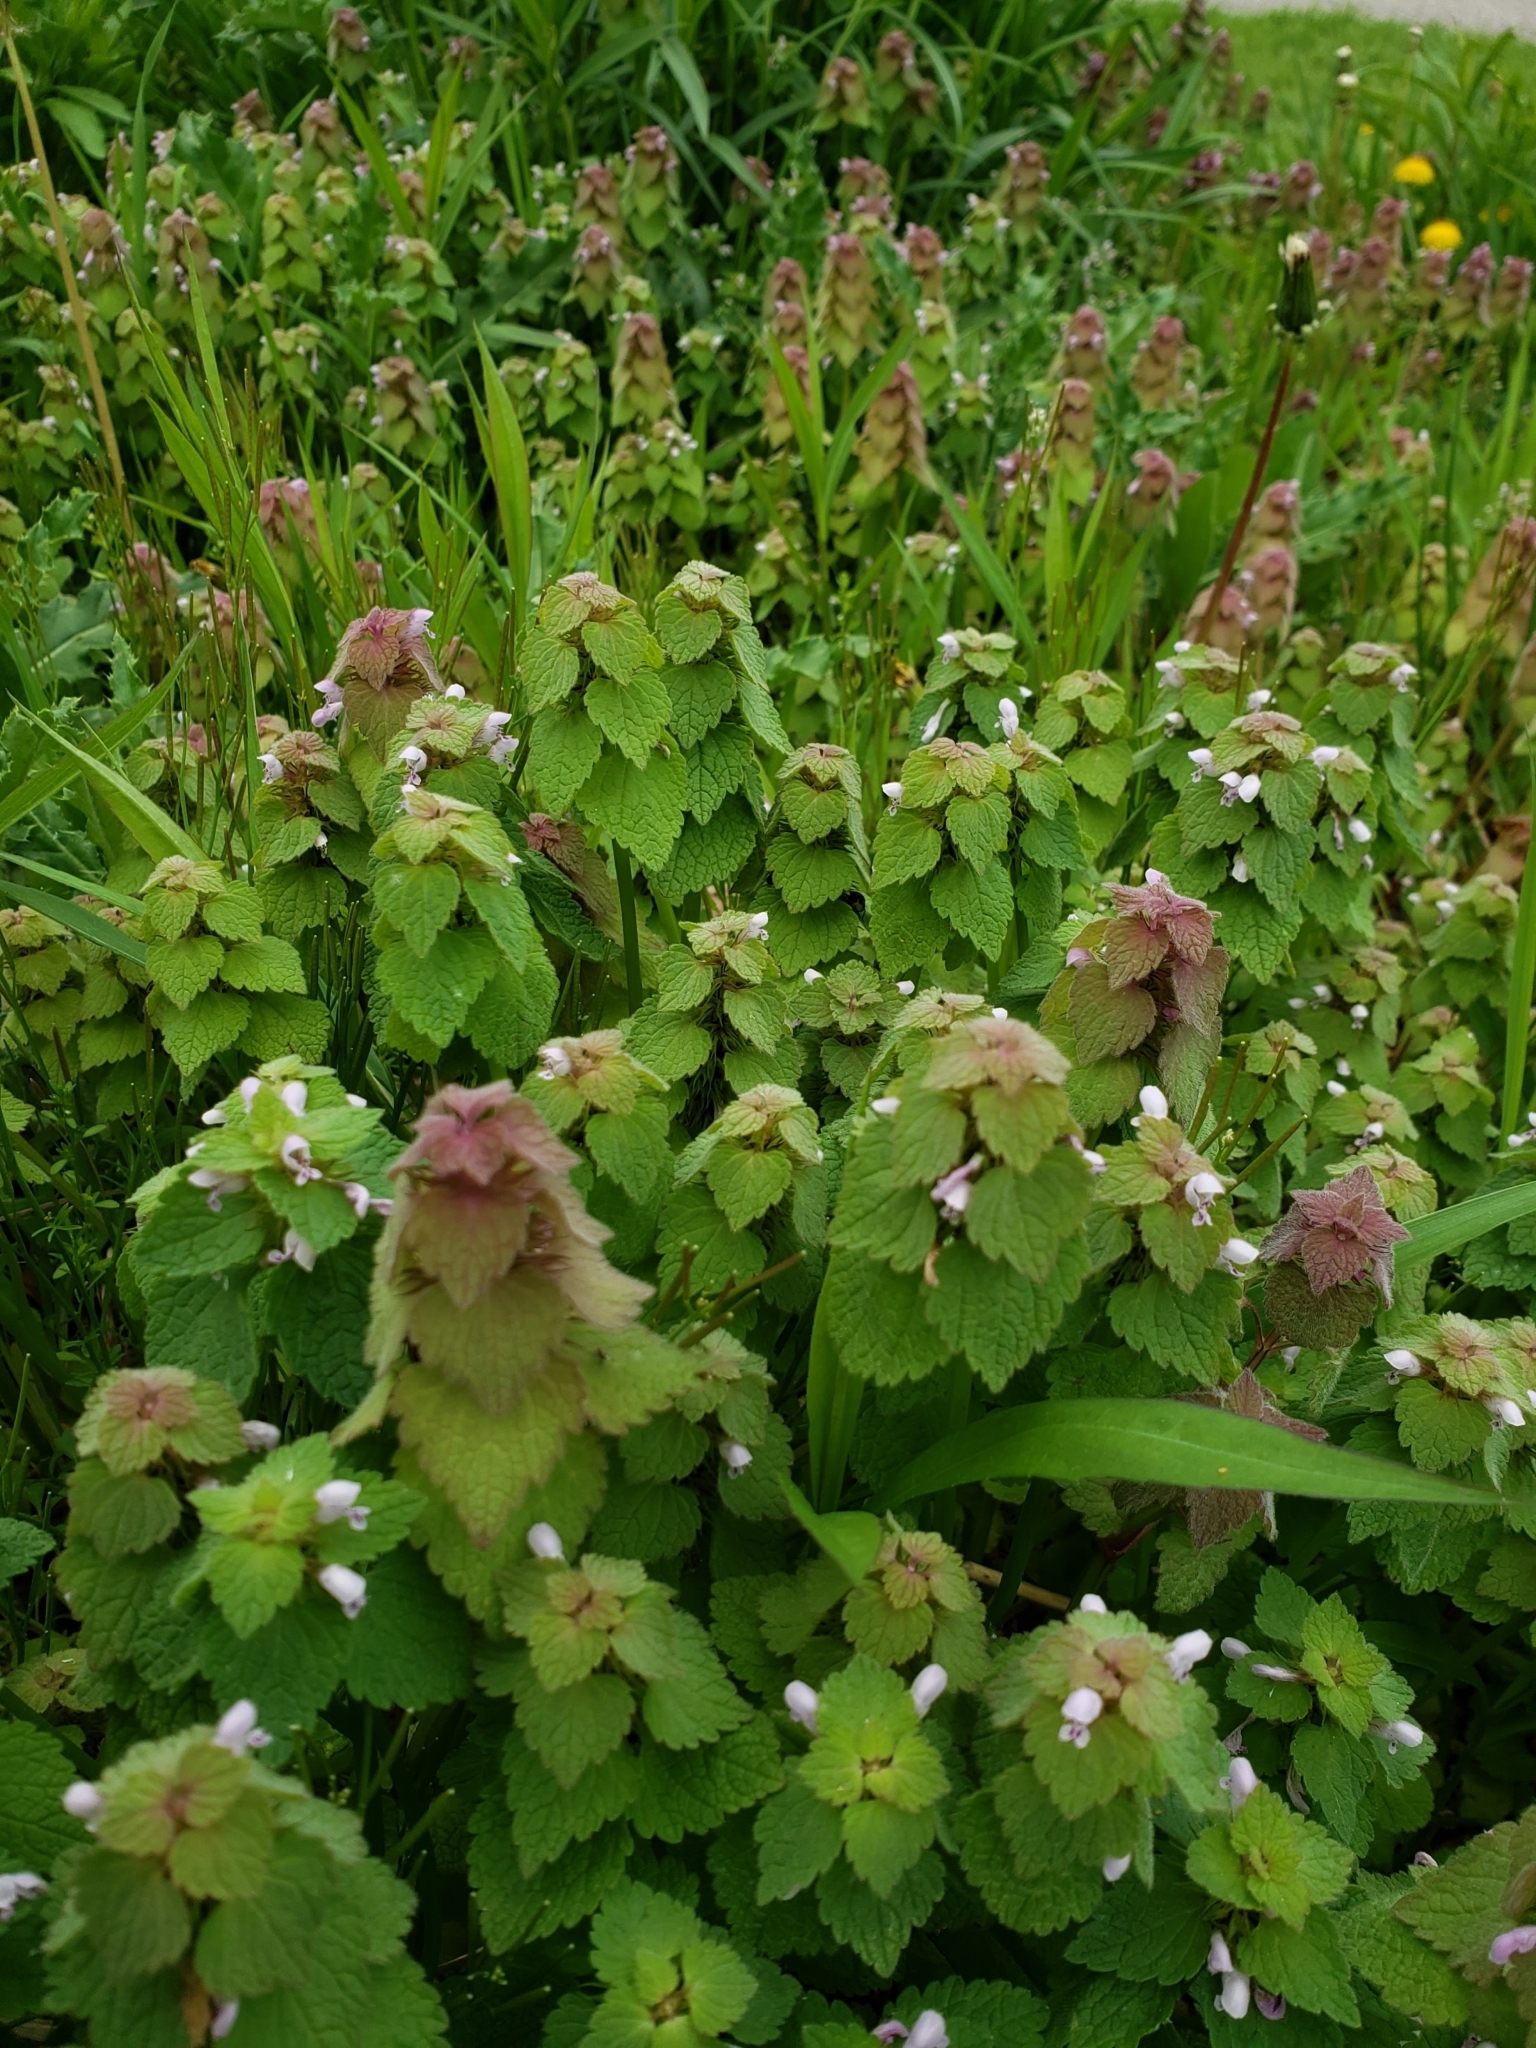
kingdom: Plantae
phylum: Tracheophyta
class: Magnoliopsida
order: Lamiales
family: Lamiaceae
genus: Lamium
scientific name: Lamium purpureum
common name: Red dead-nettle
